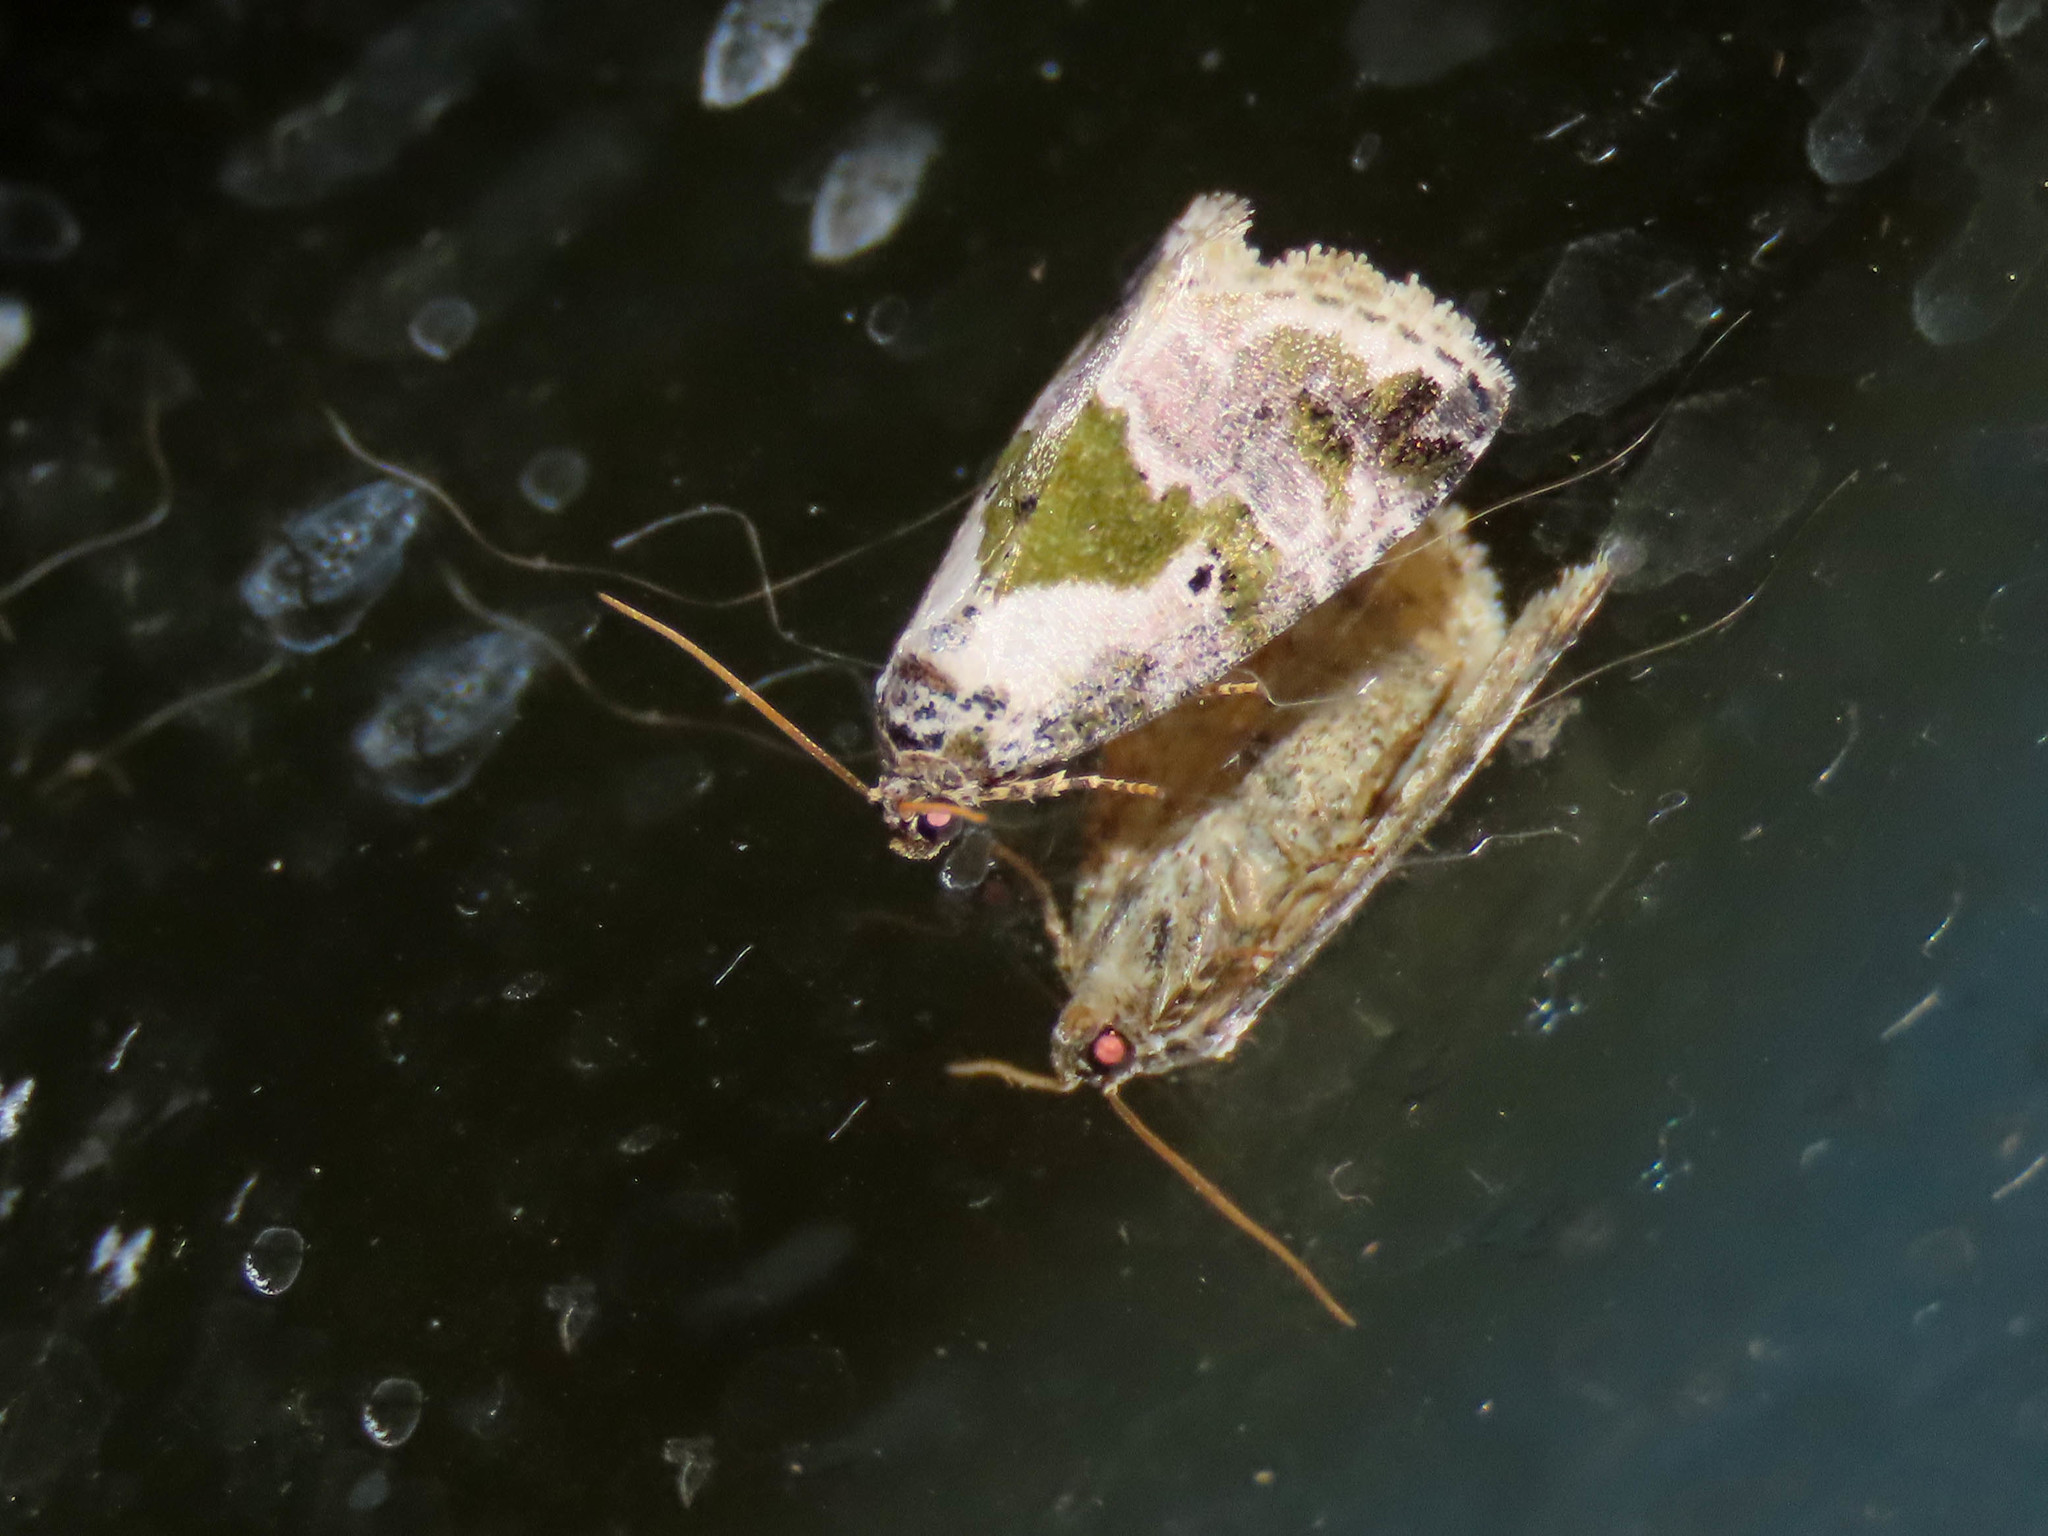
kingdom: Animalia
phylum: Arthropoda
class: Insecta
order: Lepidoptera
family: Noctuidae
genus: Maliattha
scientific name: Maliattha synochitis
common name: Black-dotted glyph
